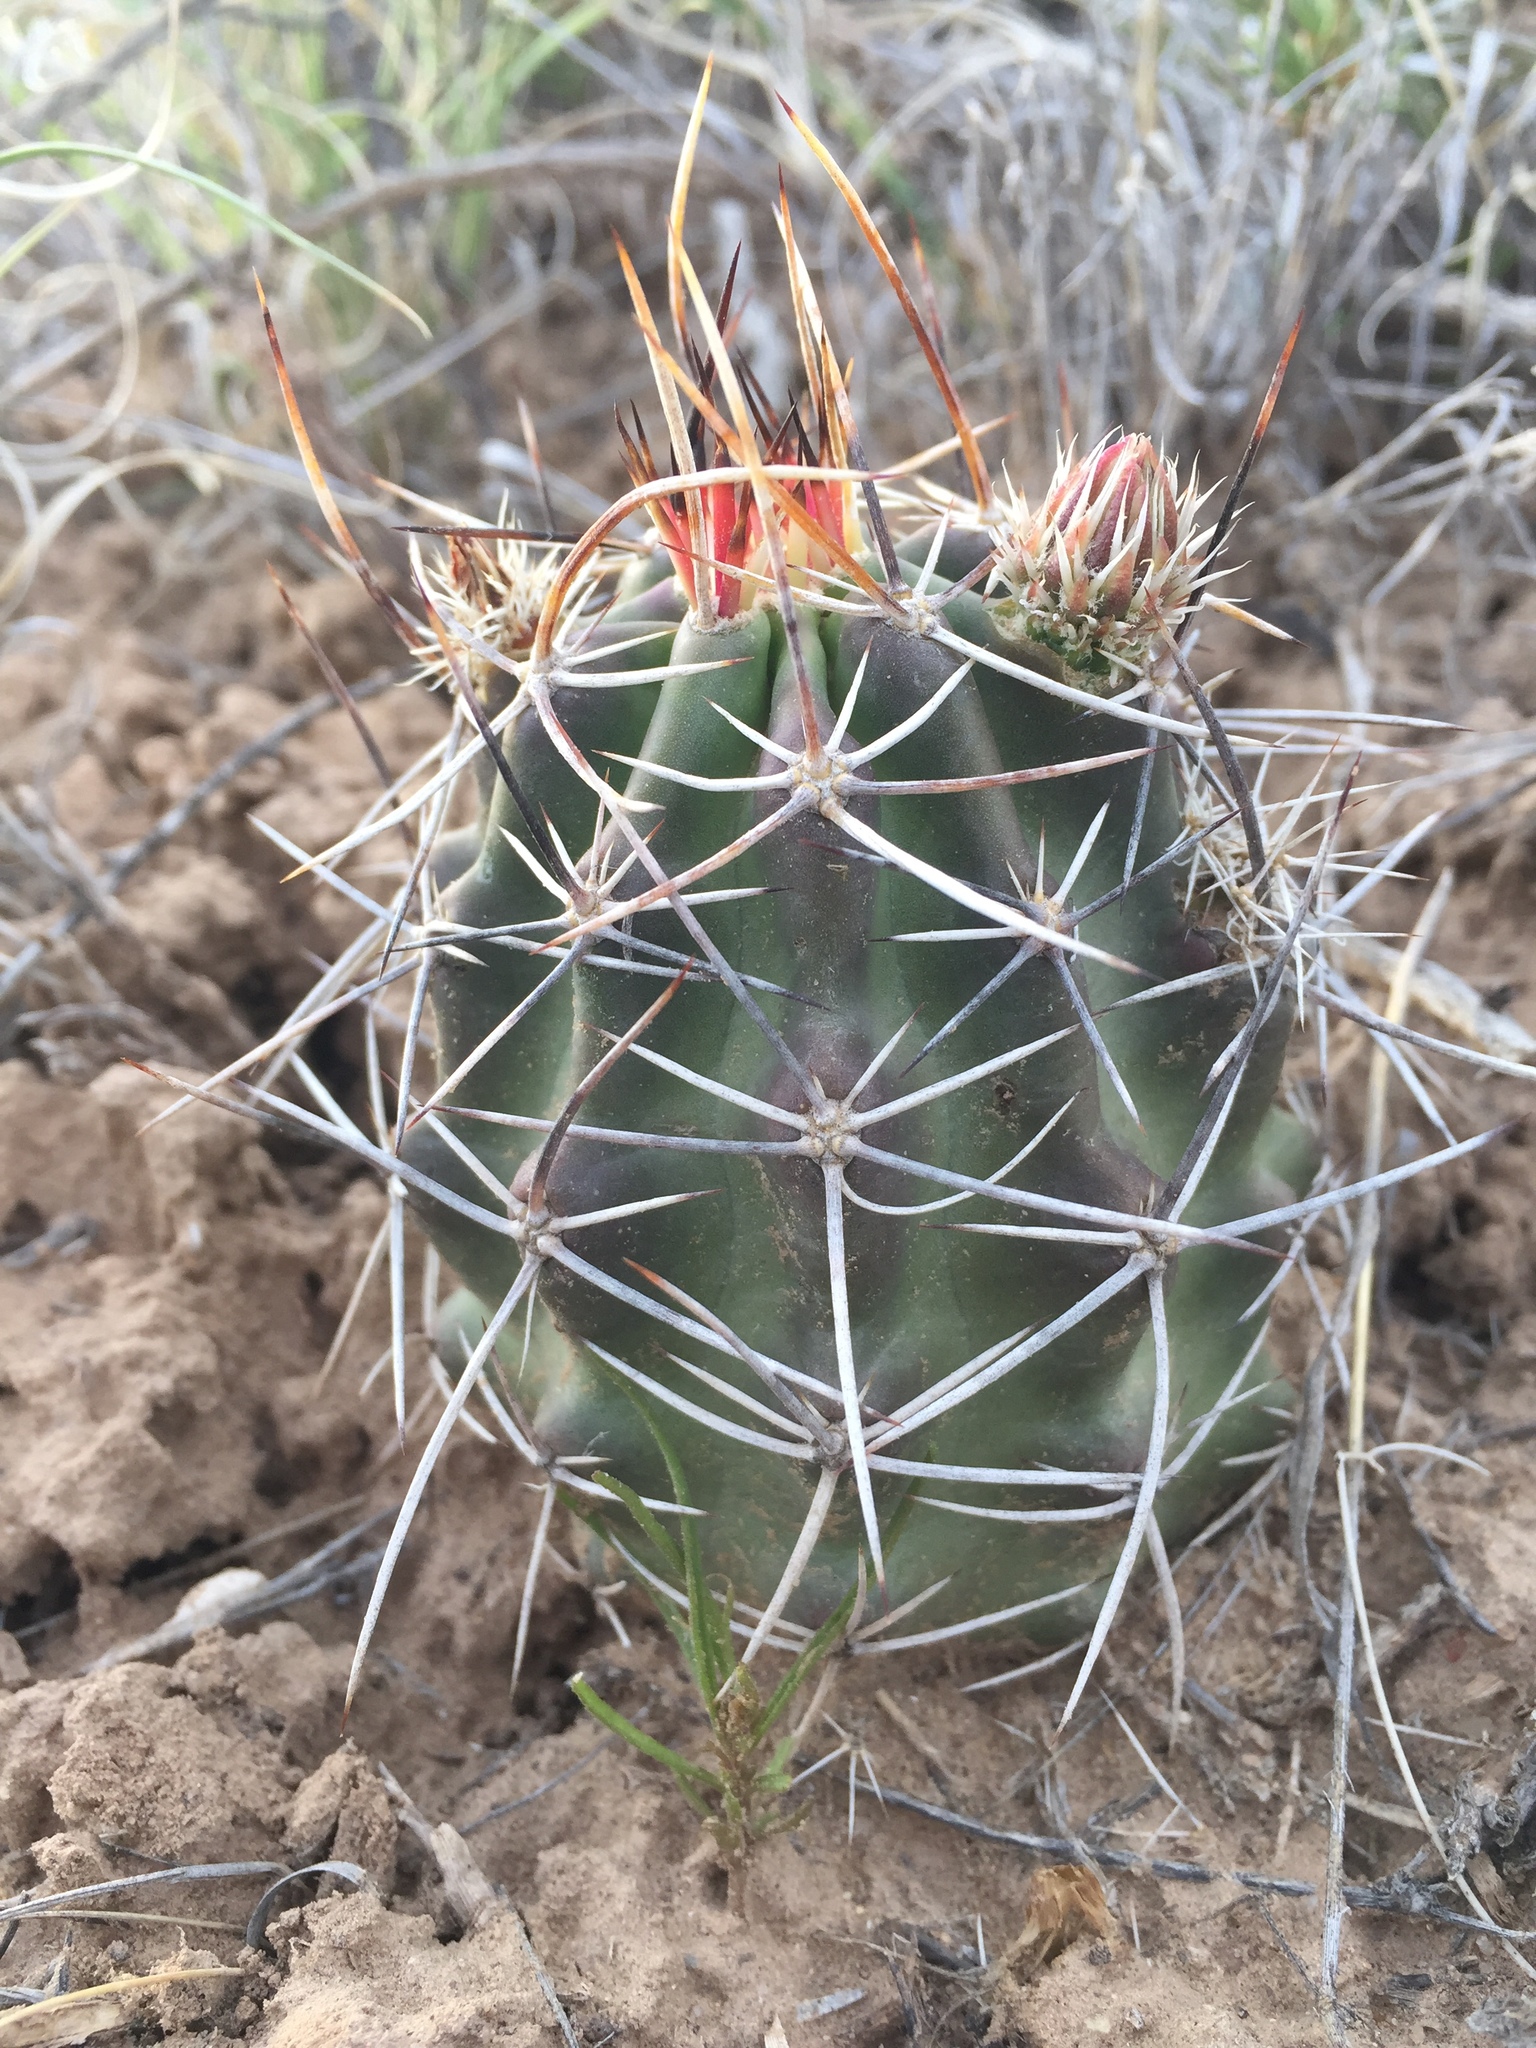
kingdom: Plantae
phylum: Tracheophyta
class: Magnoliopsida
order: Caryophyllales
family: Cactaceae
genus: Echinocereus
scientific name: Echinocereus fendleri
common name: Fendler's hedgehog cactus
